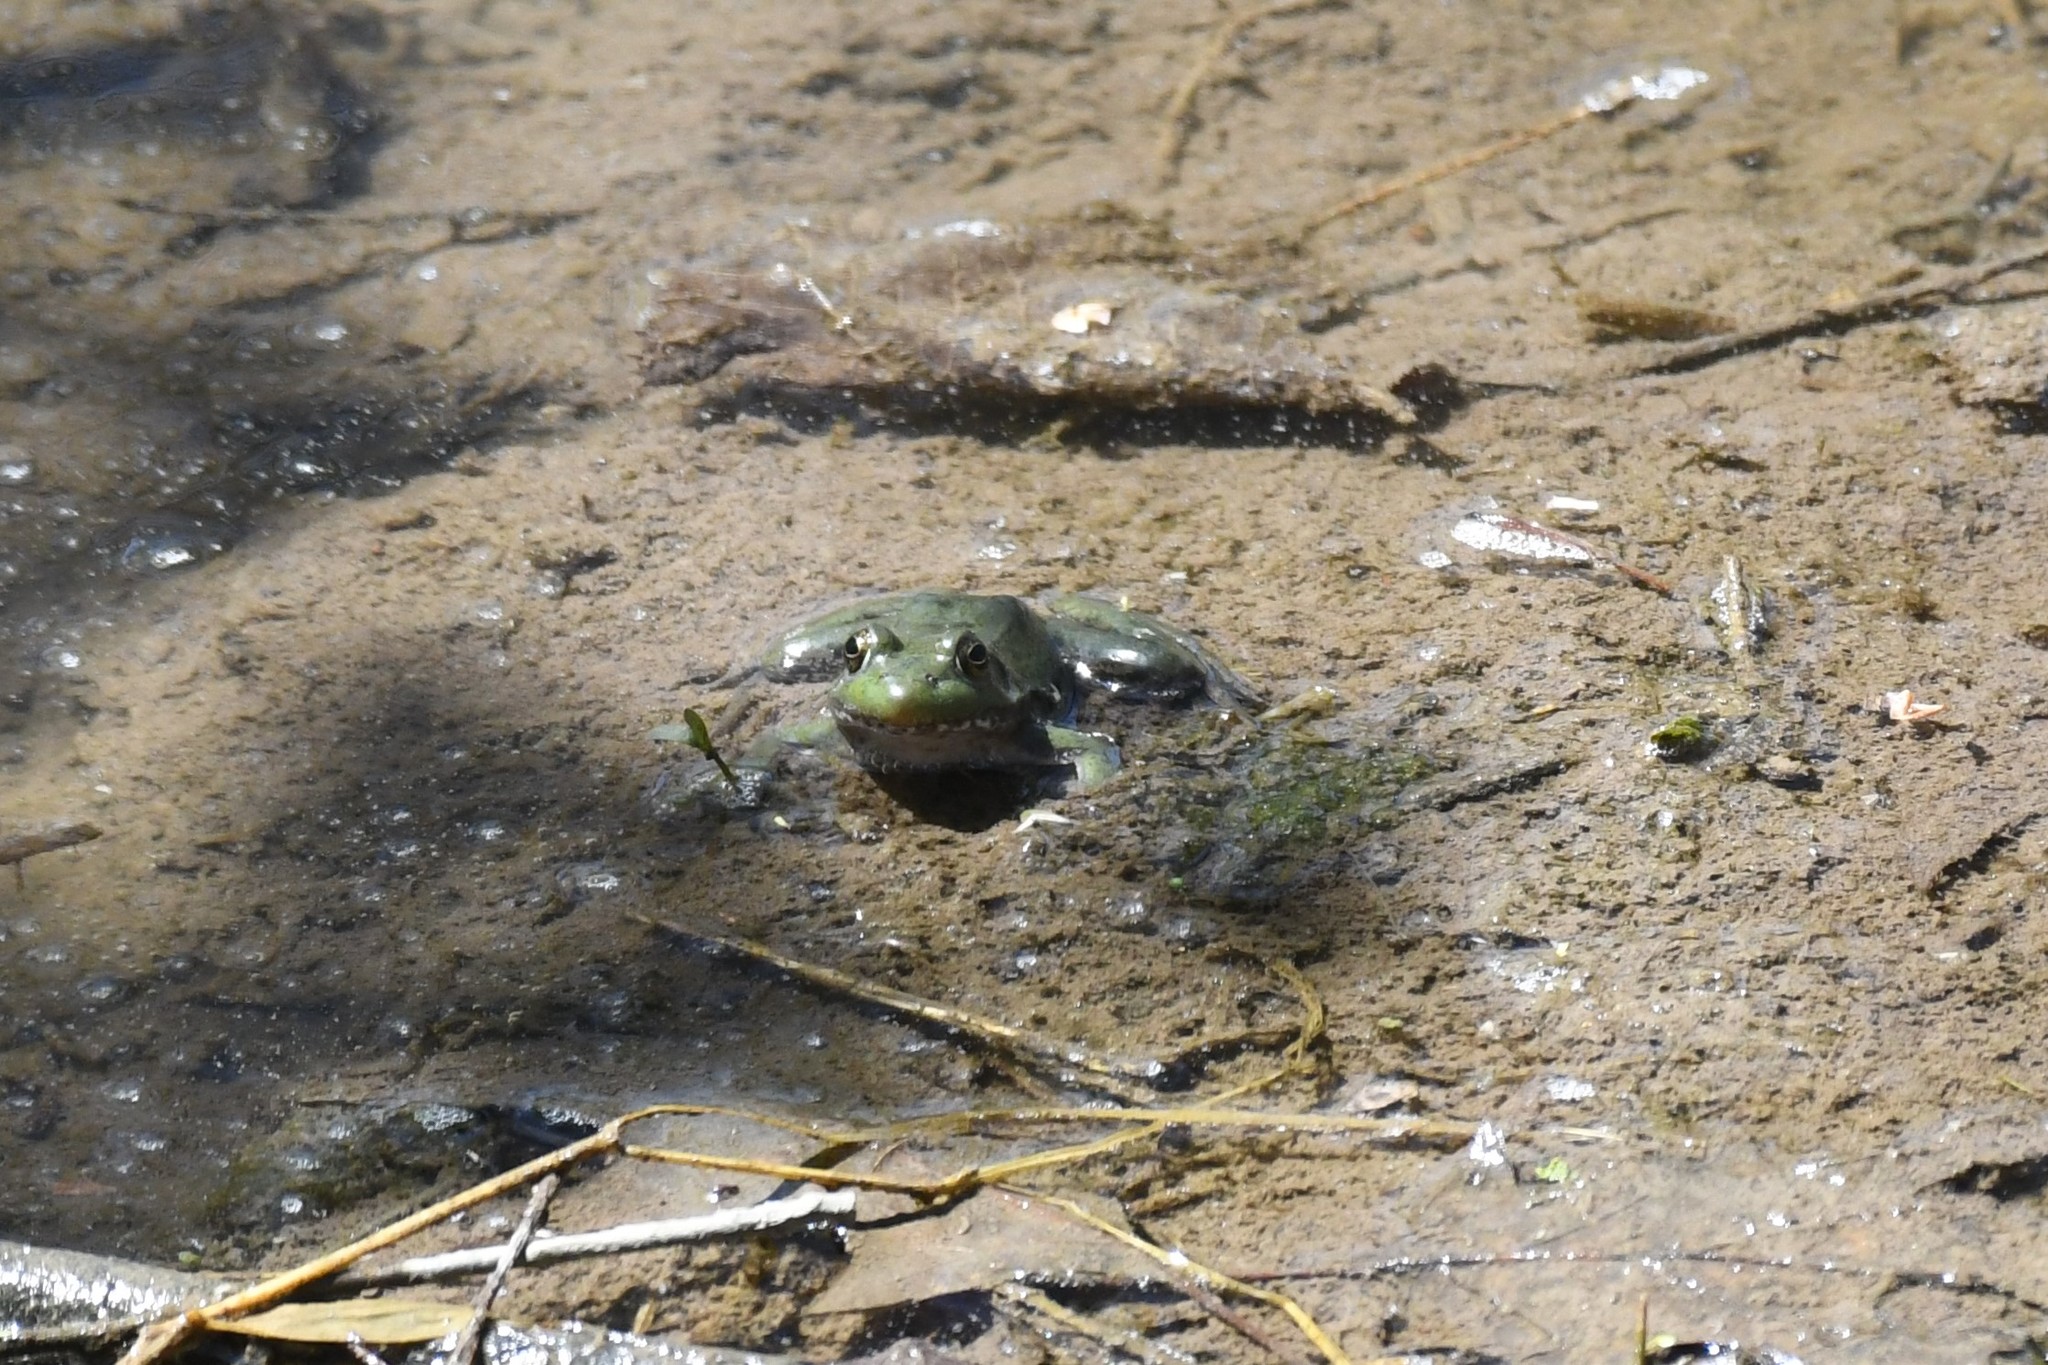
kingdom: Animalia
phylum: Chordata
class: Amphibia
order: Anura
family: Ranidae
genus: Lithobates
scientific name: Lithobates catesbeianus
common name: American bullfrog
